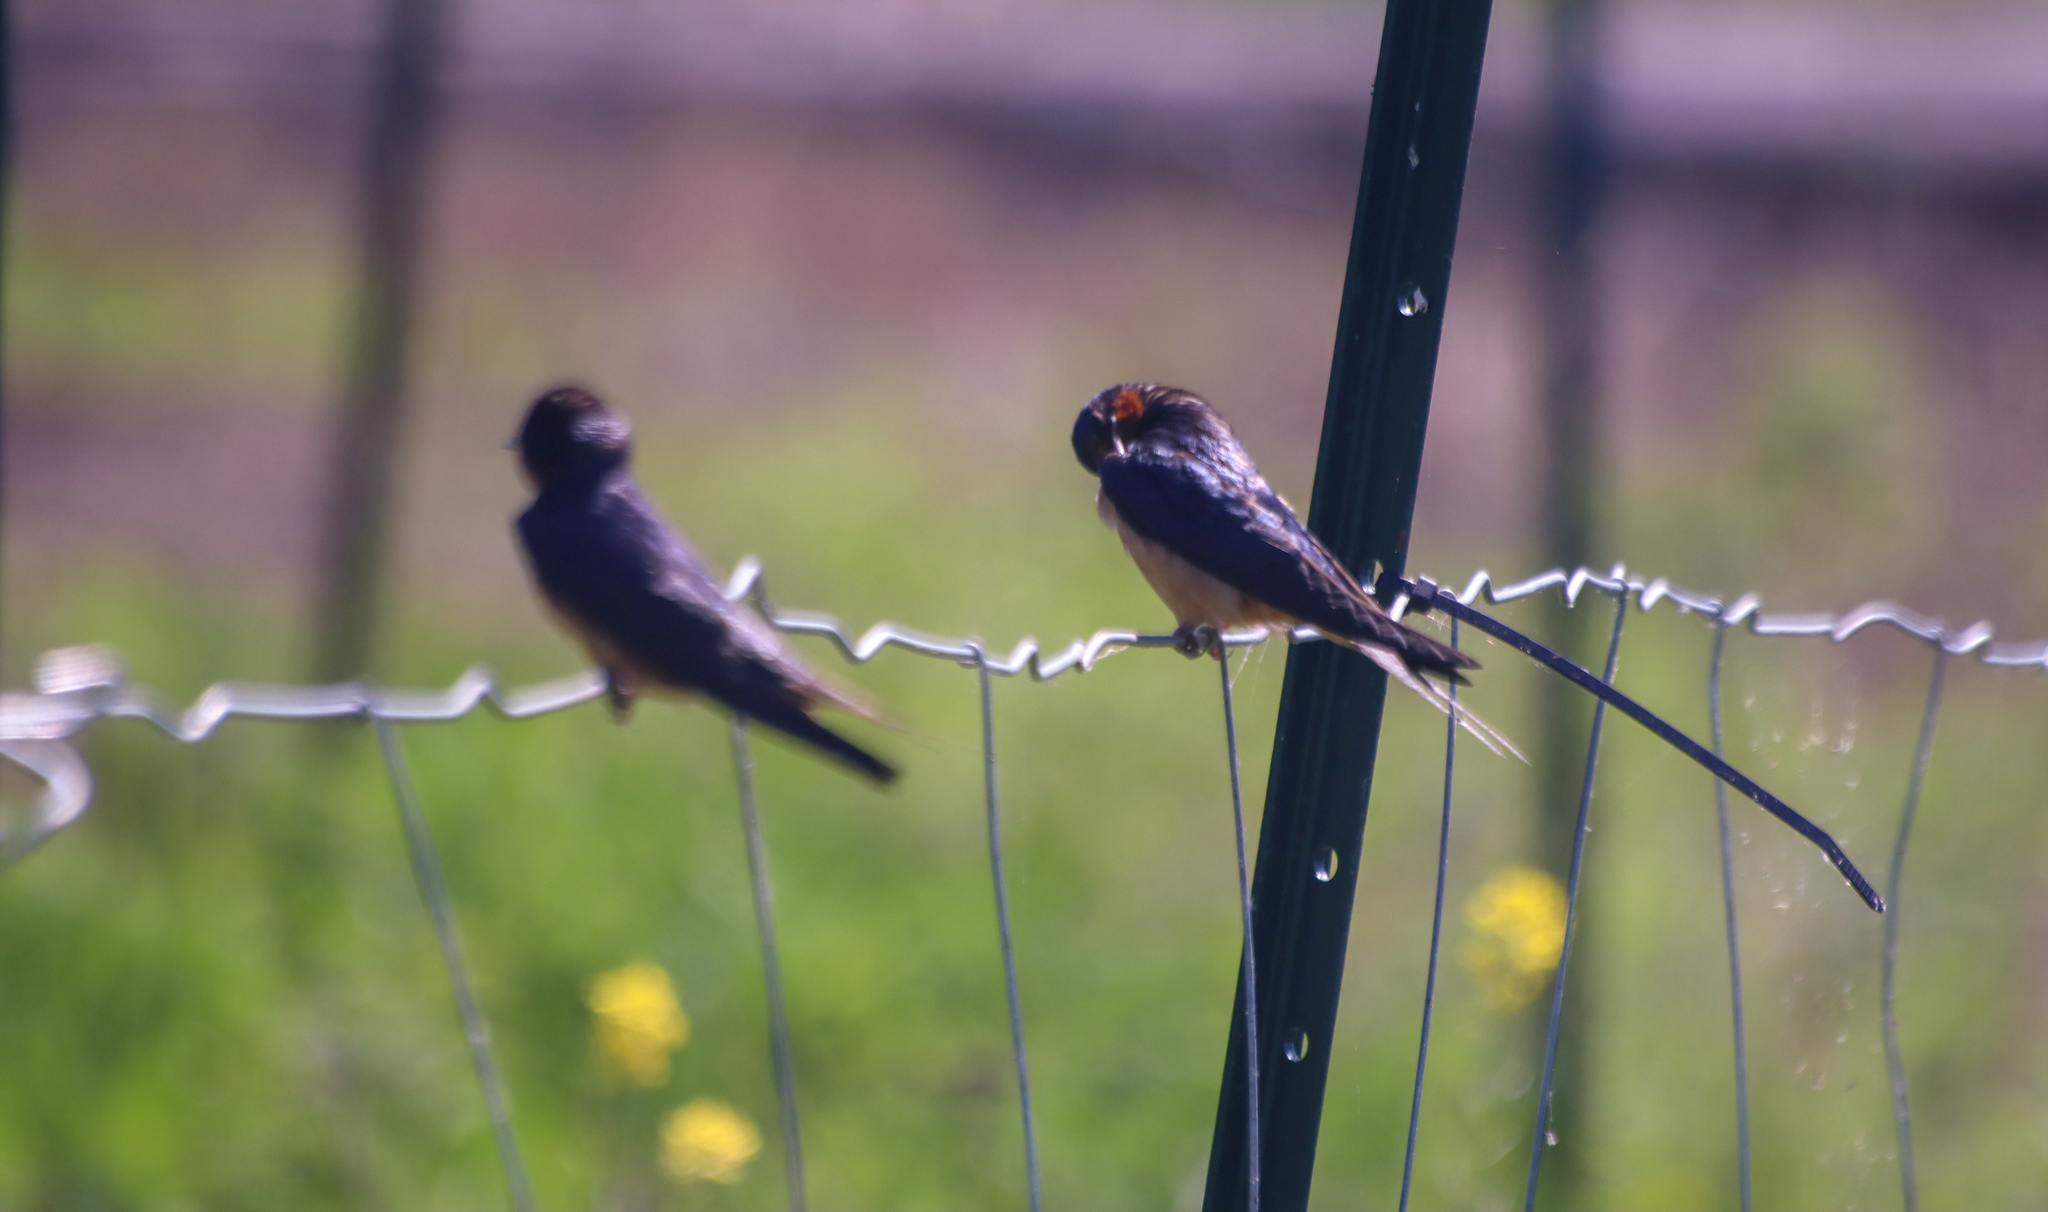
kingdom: Animalia
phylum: Chordata
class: Aves
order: Passeriformes
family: Hirundinidae
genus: Hirundo
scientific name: Hirundo rustica
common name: Barn swallow
